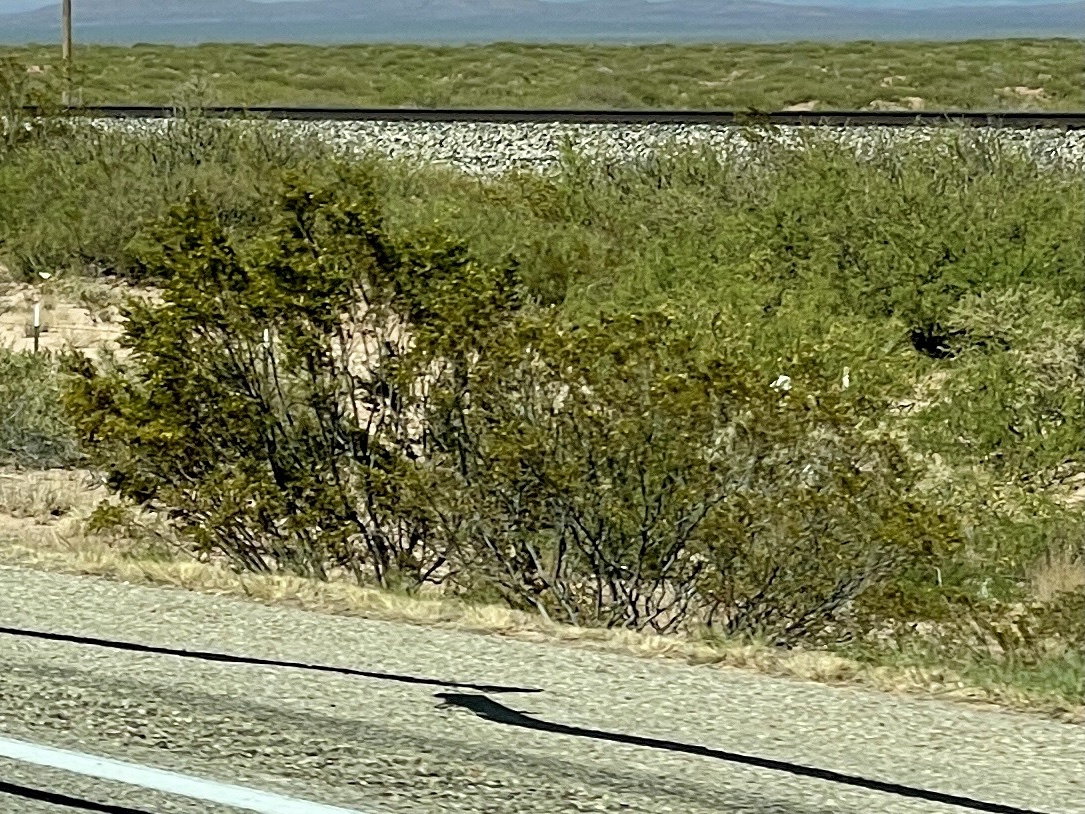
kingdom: Plantae
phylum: Tracheophyta
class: Magnoliopsida
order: Zygophyllales
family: Zygophyllaceae
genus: Larrea
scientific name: Larrea tridentata
